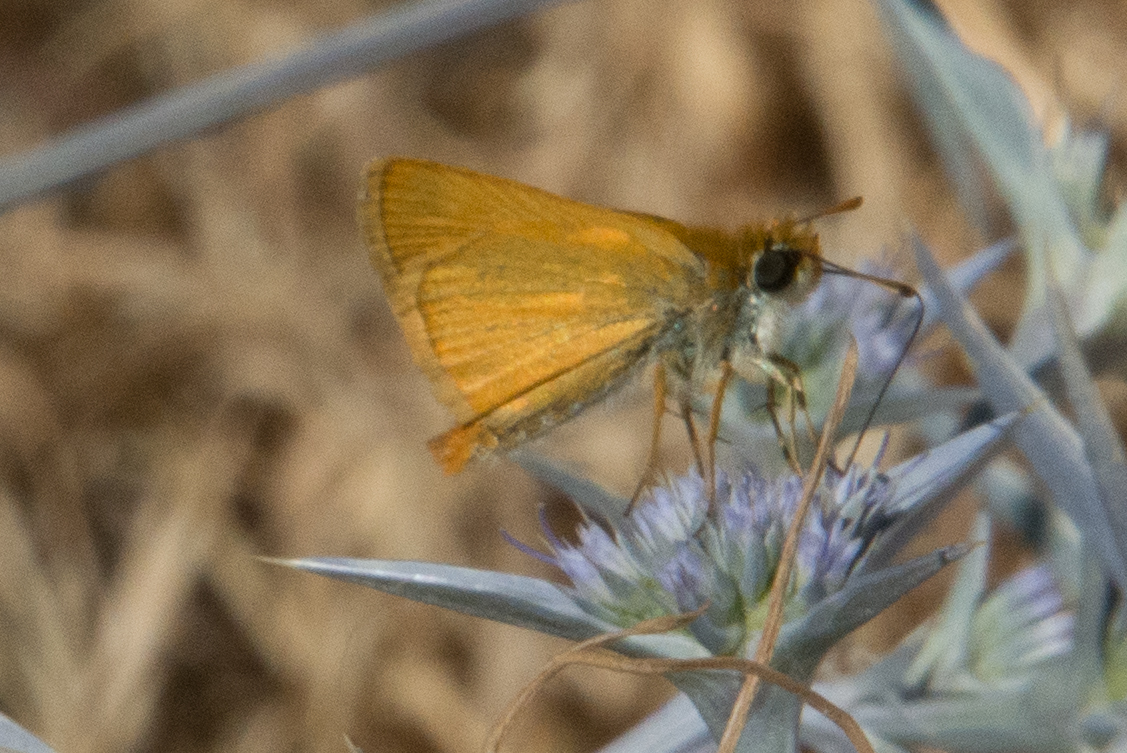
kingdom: Animalia
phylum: Arthropoda
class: Insecta
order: Lepidoptera
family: Hesperiidae
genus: Thymelicus
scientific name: Thymelicus acteon
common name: Lulworth skipper
